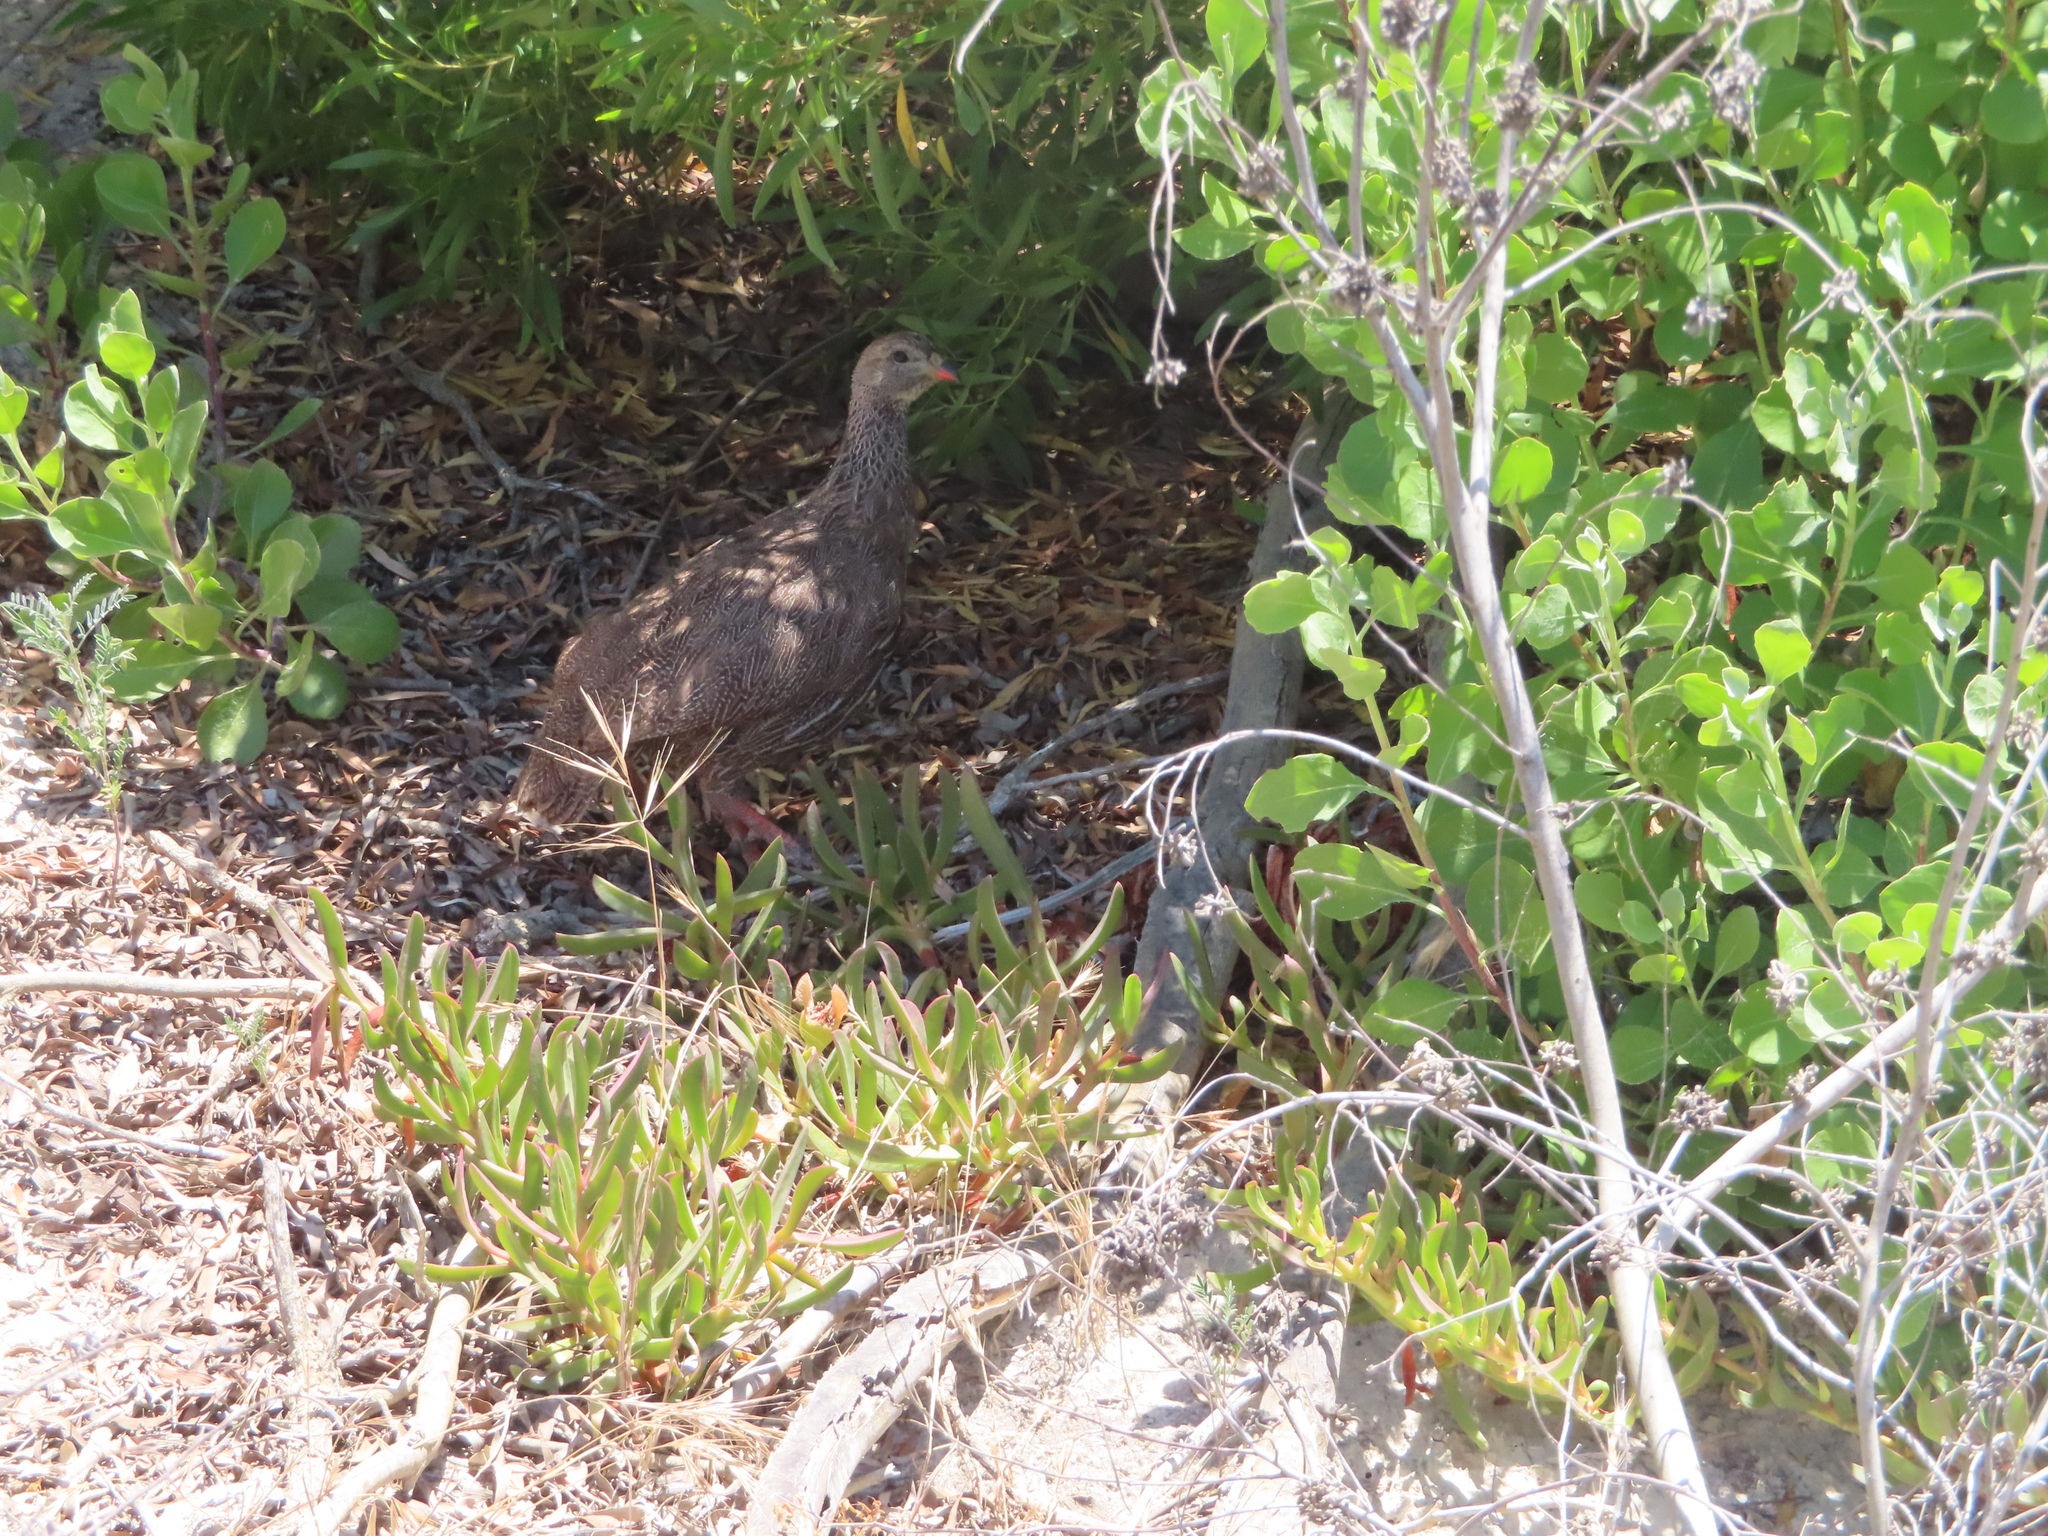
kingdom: Animalia
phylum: Chordata
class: Aves
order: Galliformes
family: Phasianidae
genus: Pternistis
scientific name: Pternistis capensis
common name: Cape spurfowl
